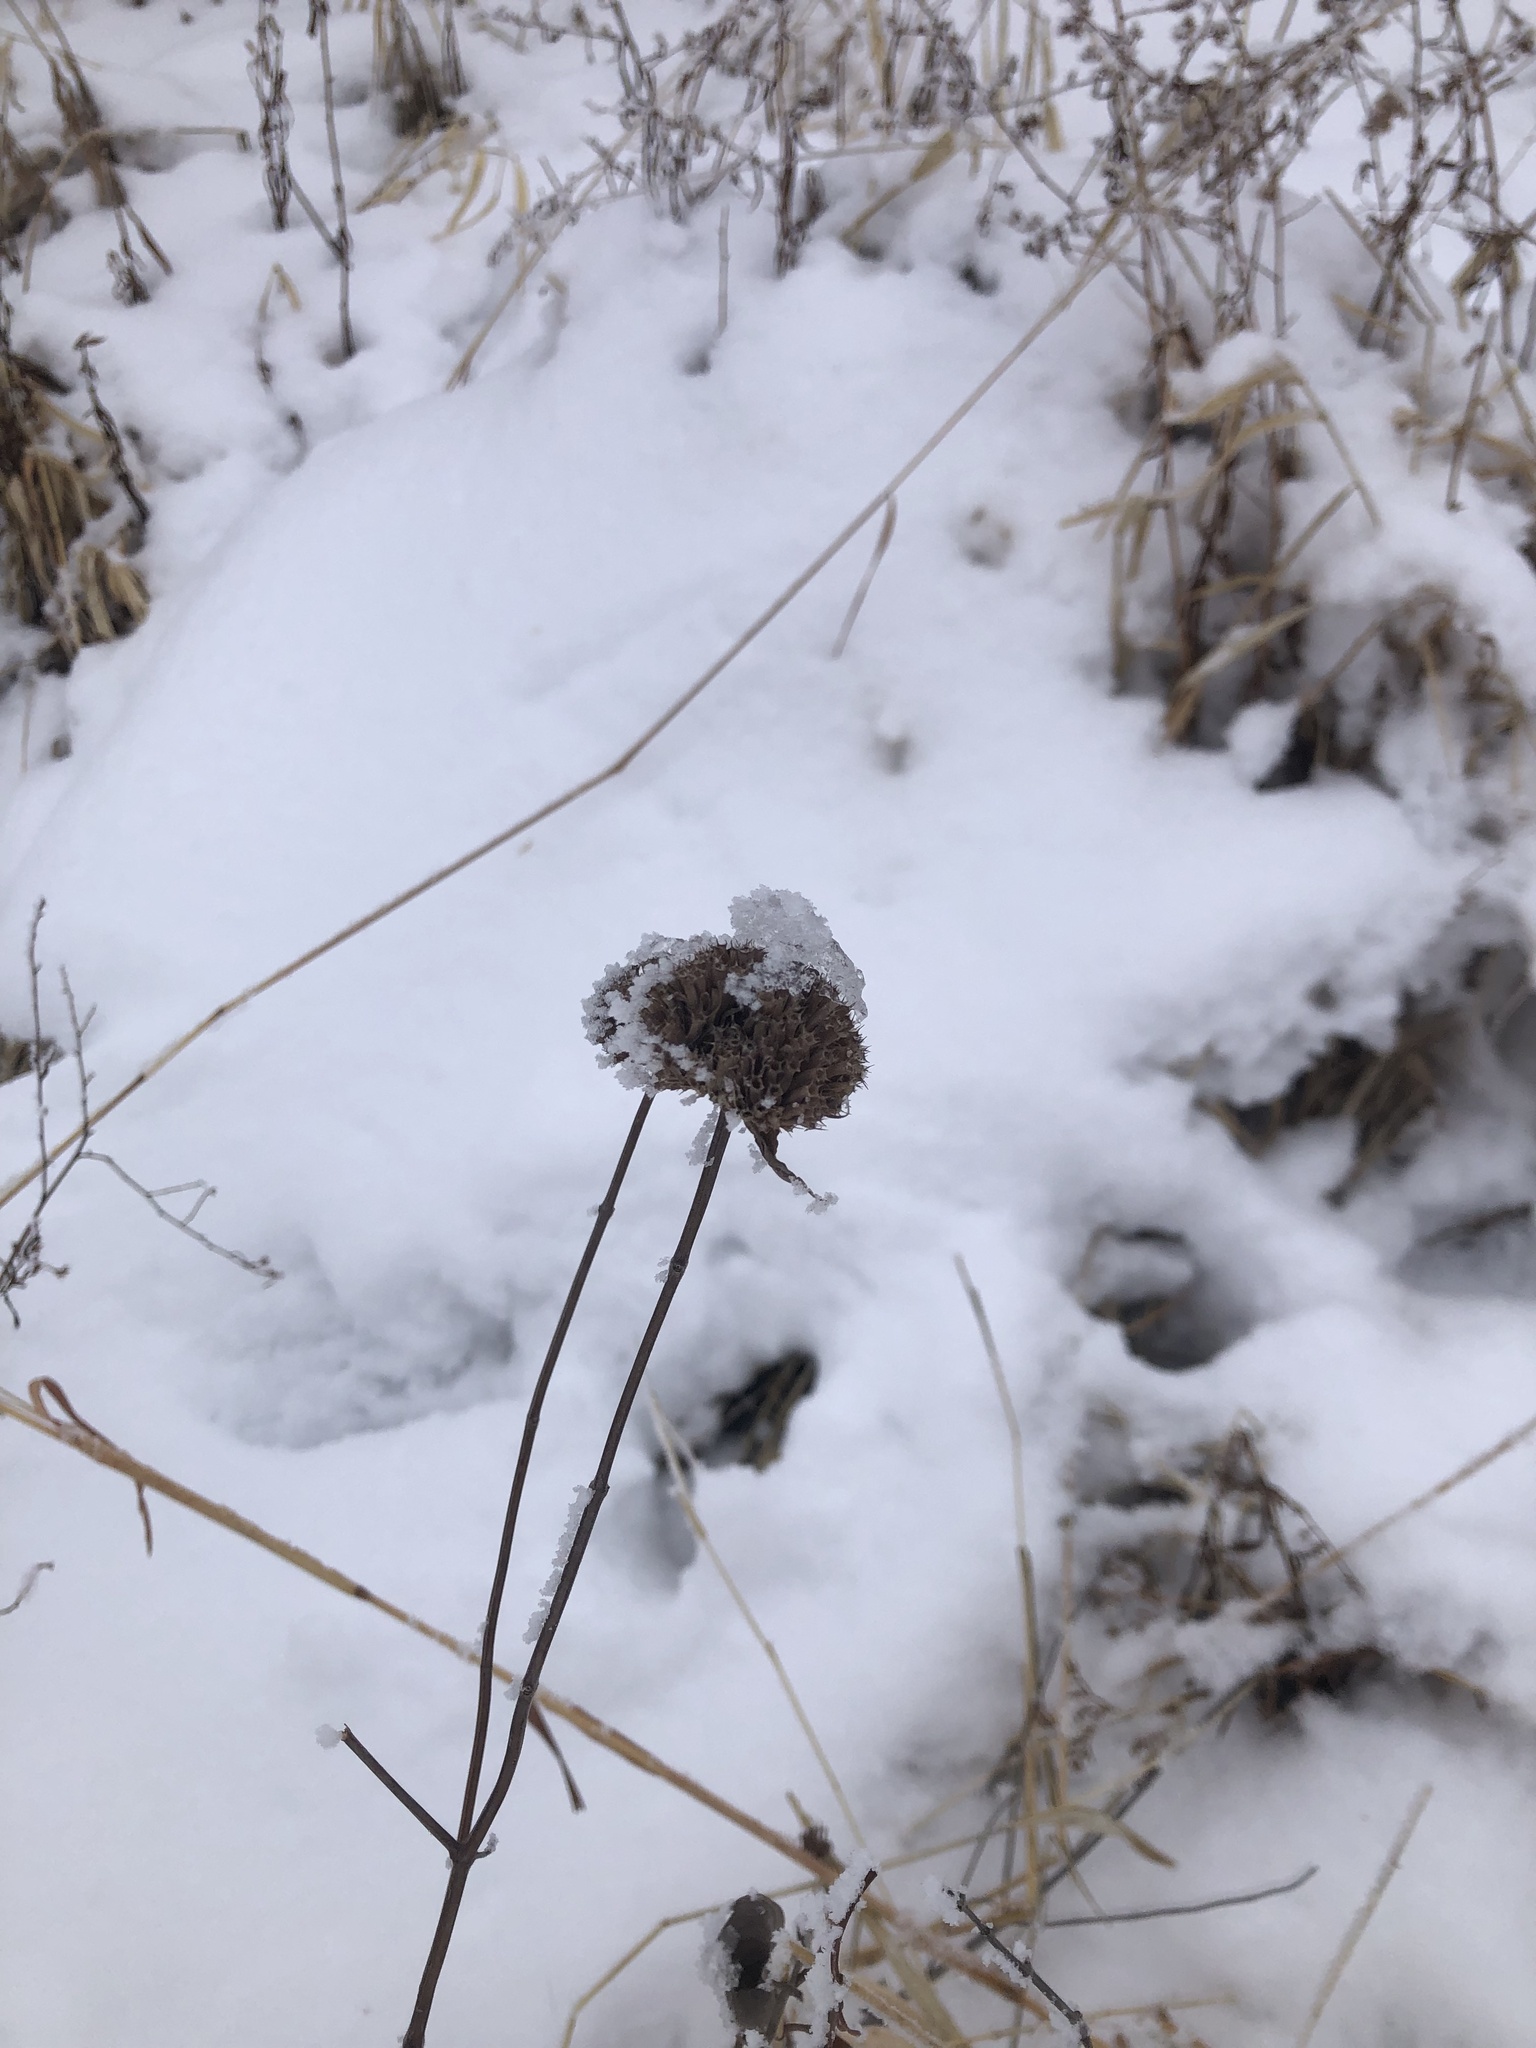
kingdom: Plantae
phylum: Tracheophyta
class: Magnoliopsida
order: Lamiales
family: Lamiaceae
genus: Monarda
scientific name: Monarda fistulosa
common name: Purple beebalm
